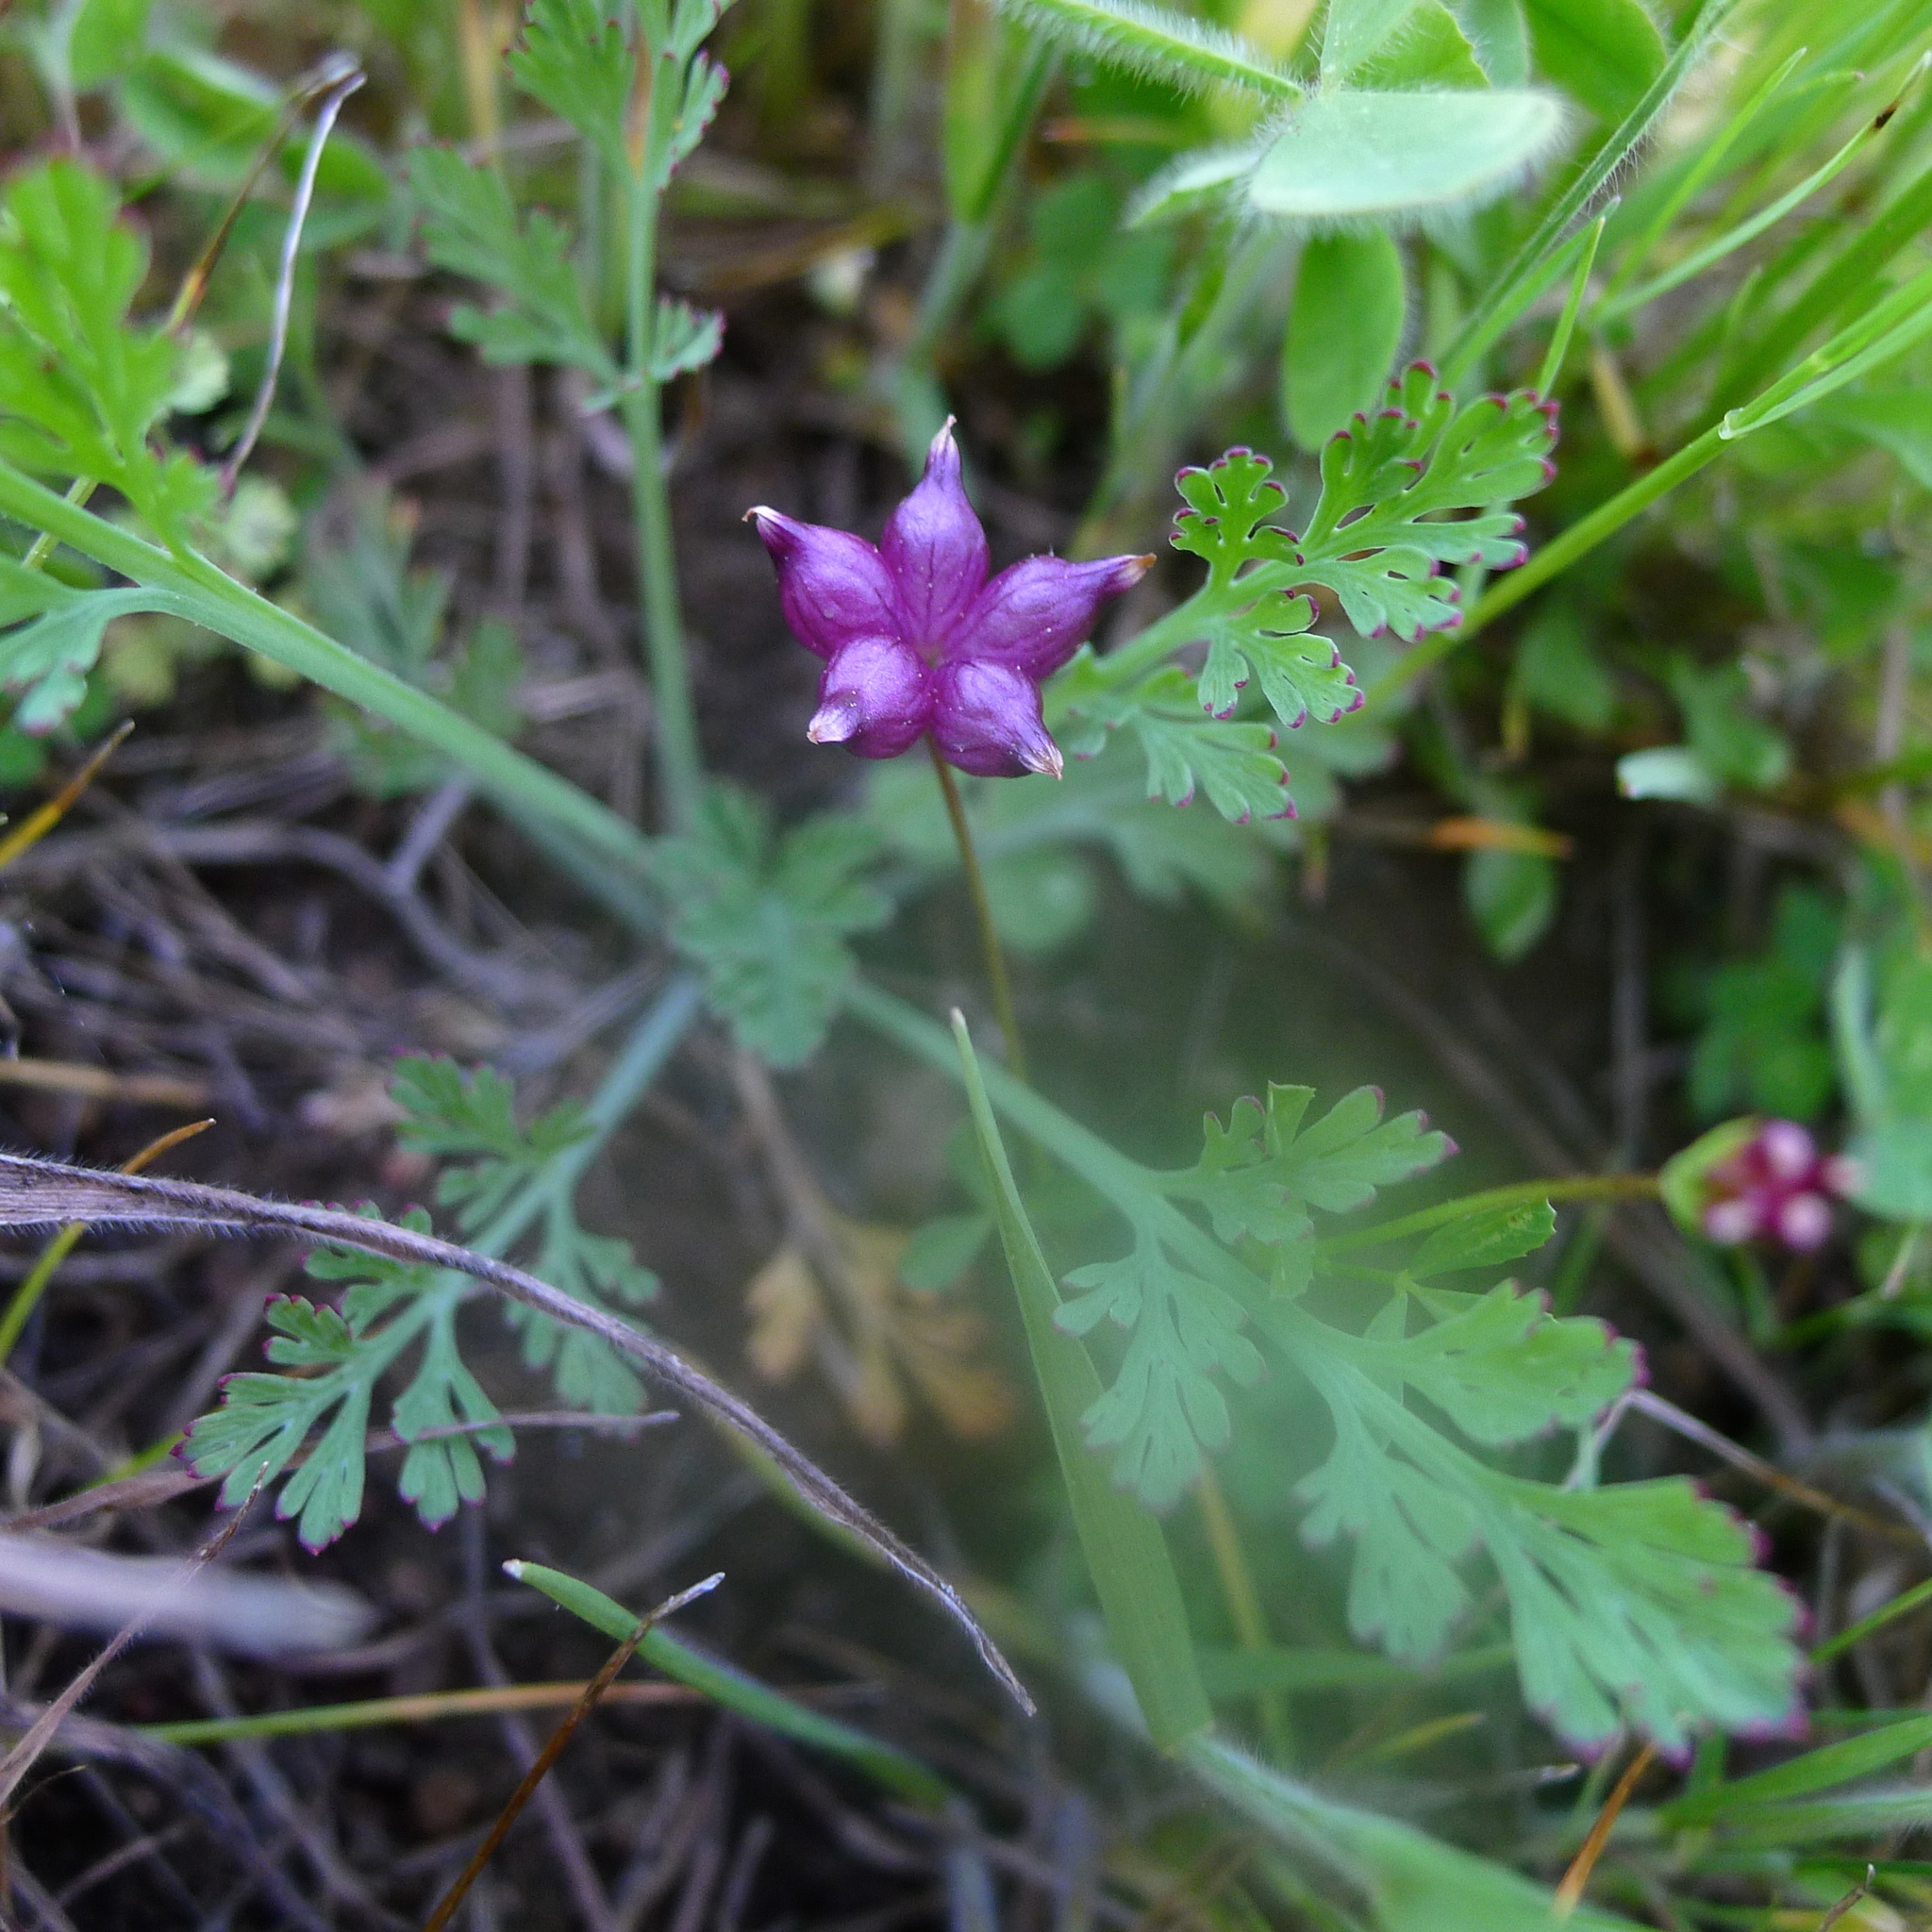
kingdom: Plantae
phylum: Tracheophyta
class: Magnoliopsida
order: Fabales
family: Fabaceae
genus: Trifolium
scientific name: Trifolium depauperatum
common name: Poverty clover
